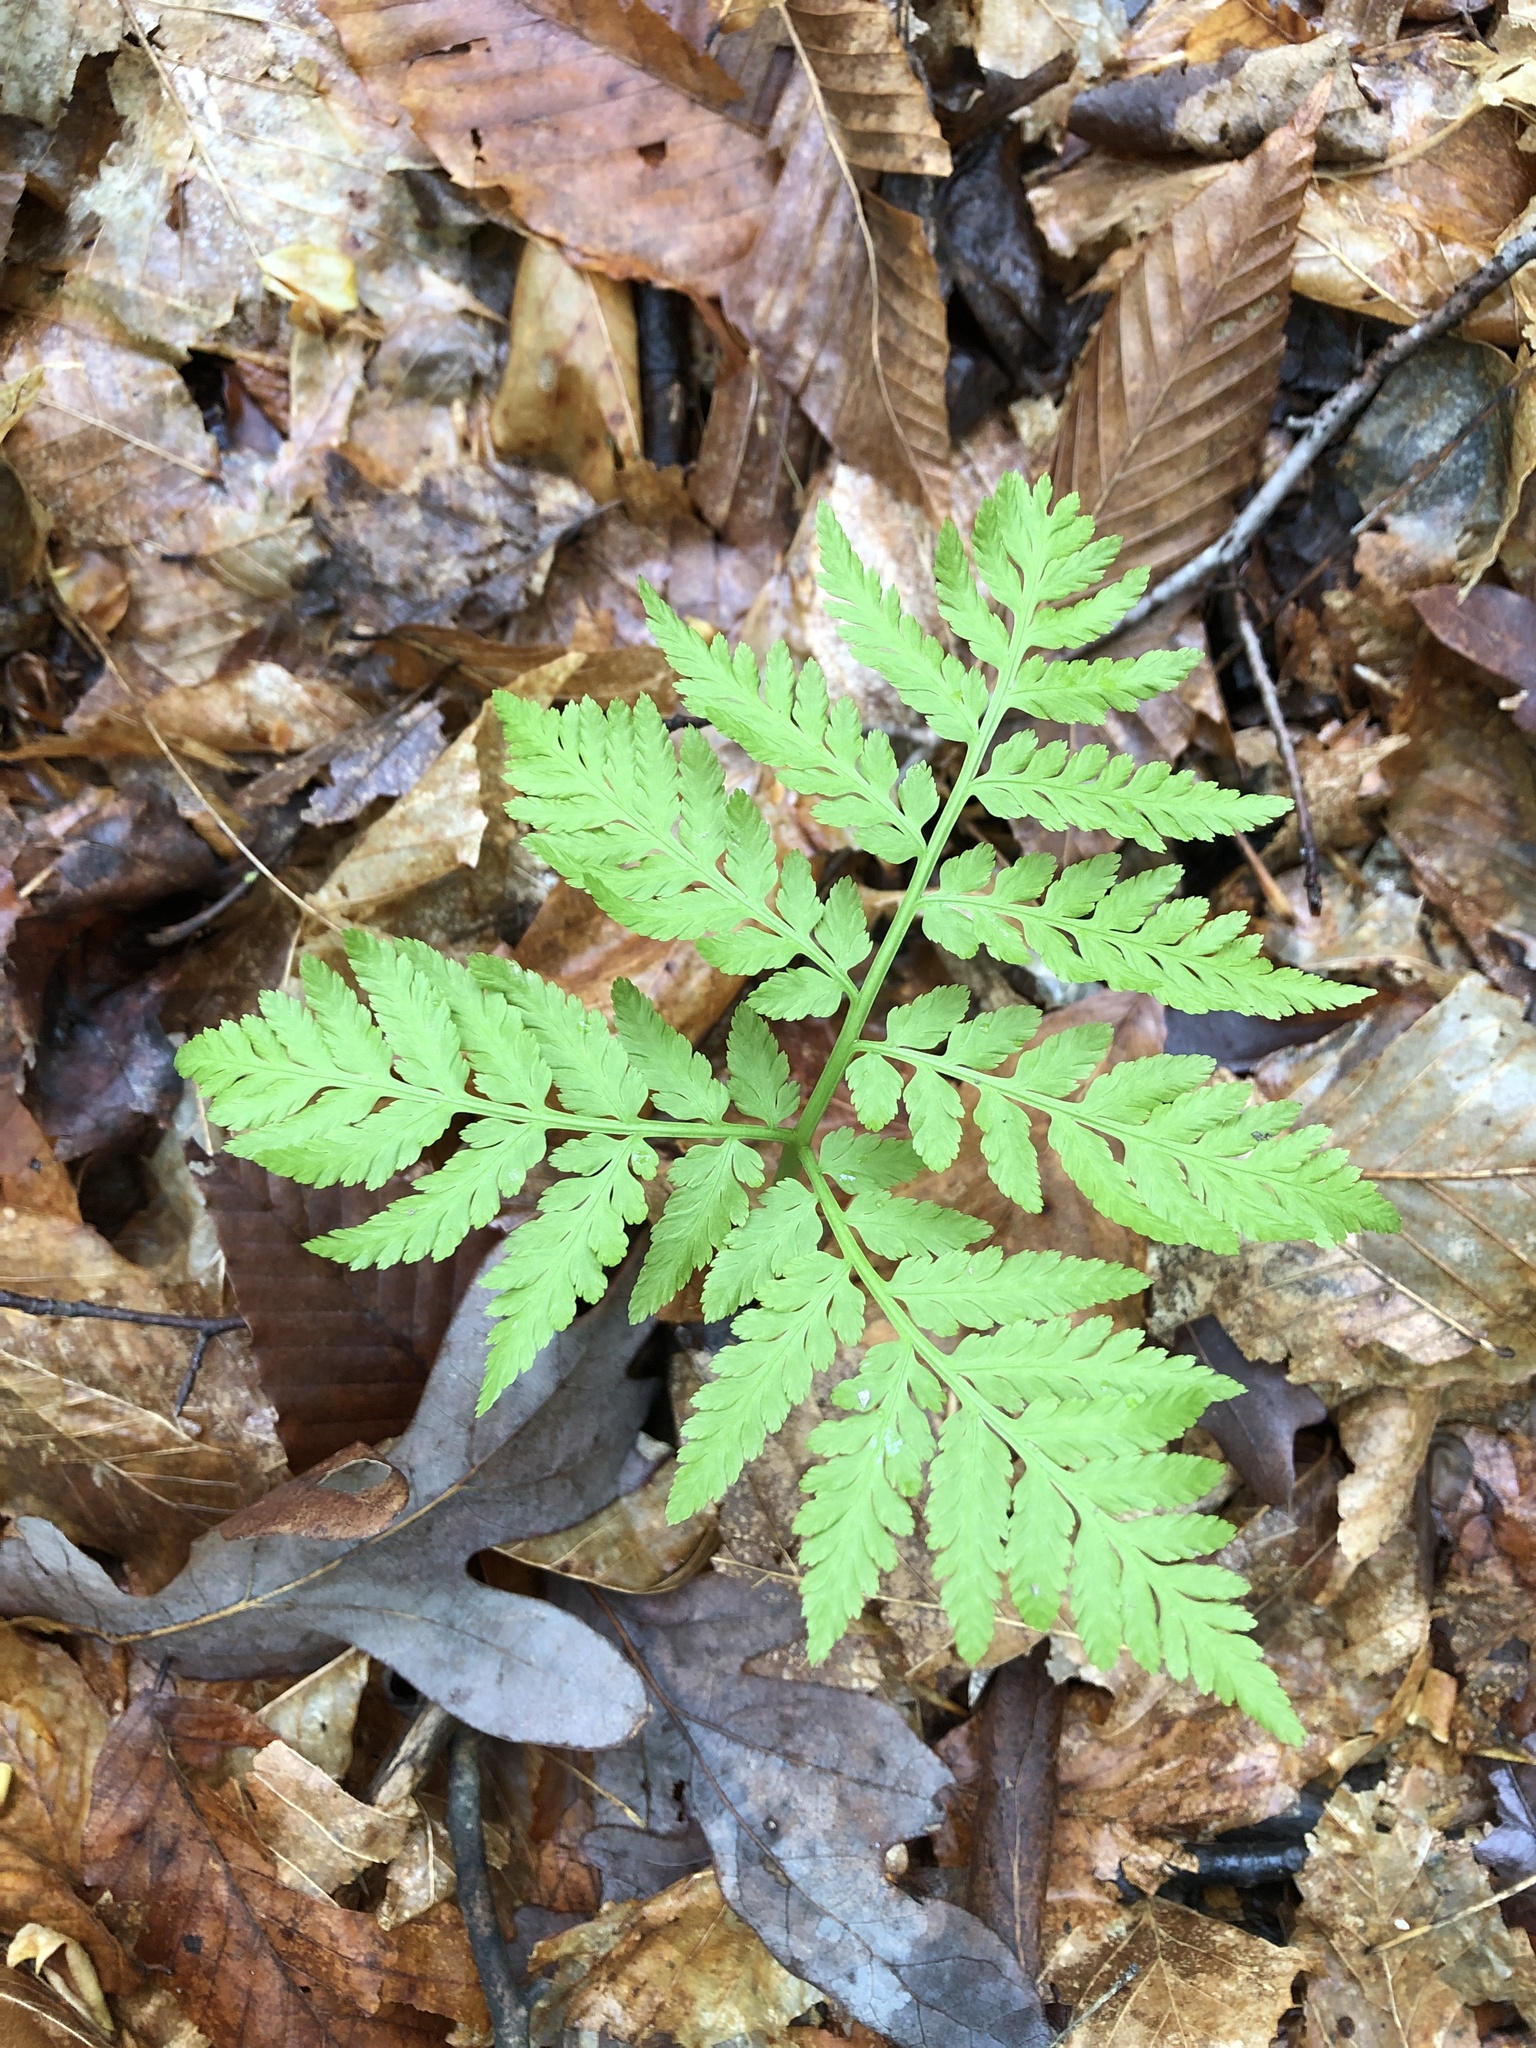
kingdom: Plantae
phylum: Tracheophyta
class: Polypodiopsida
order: Ophioglossales
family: Ophioglossaceae
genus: Botrypus
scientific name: Botrypus virginianus
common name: Common grapefern
